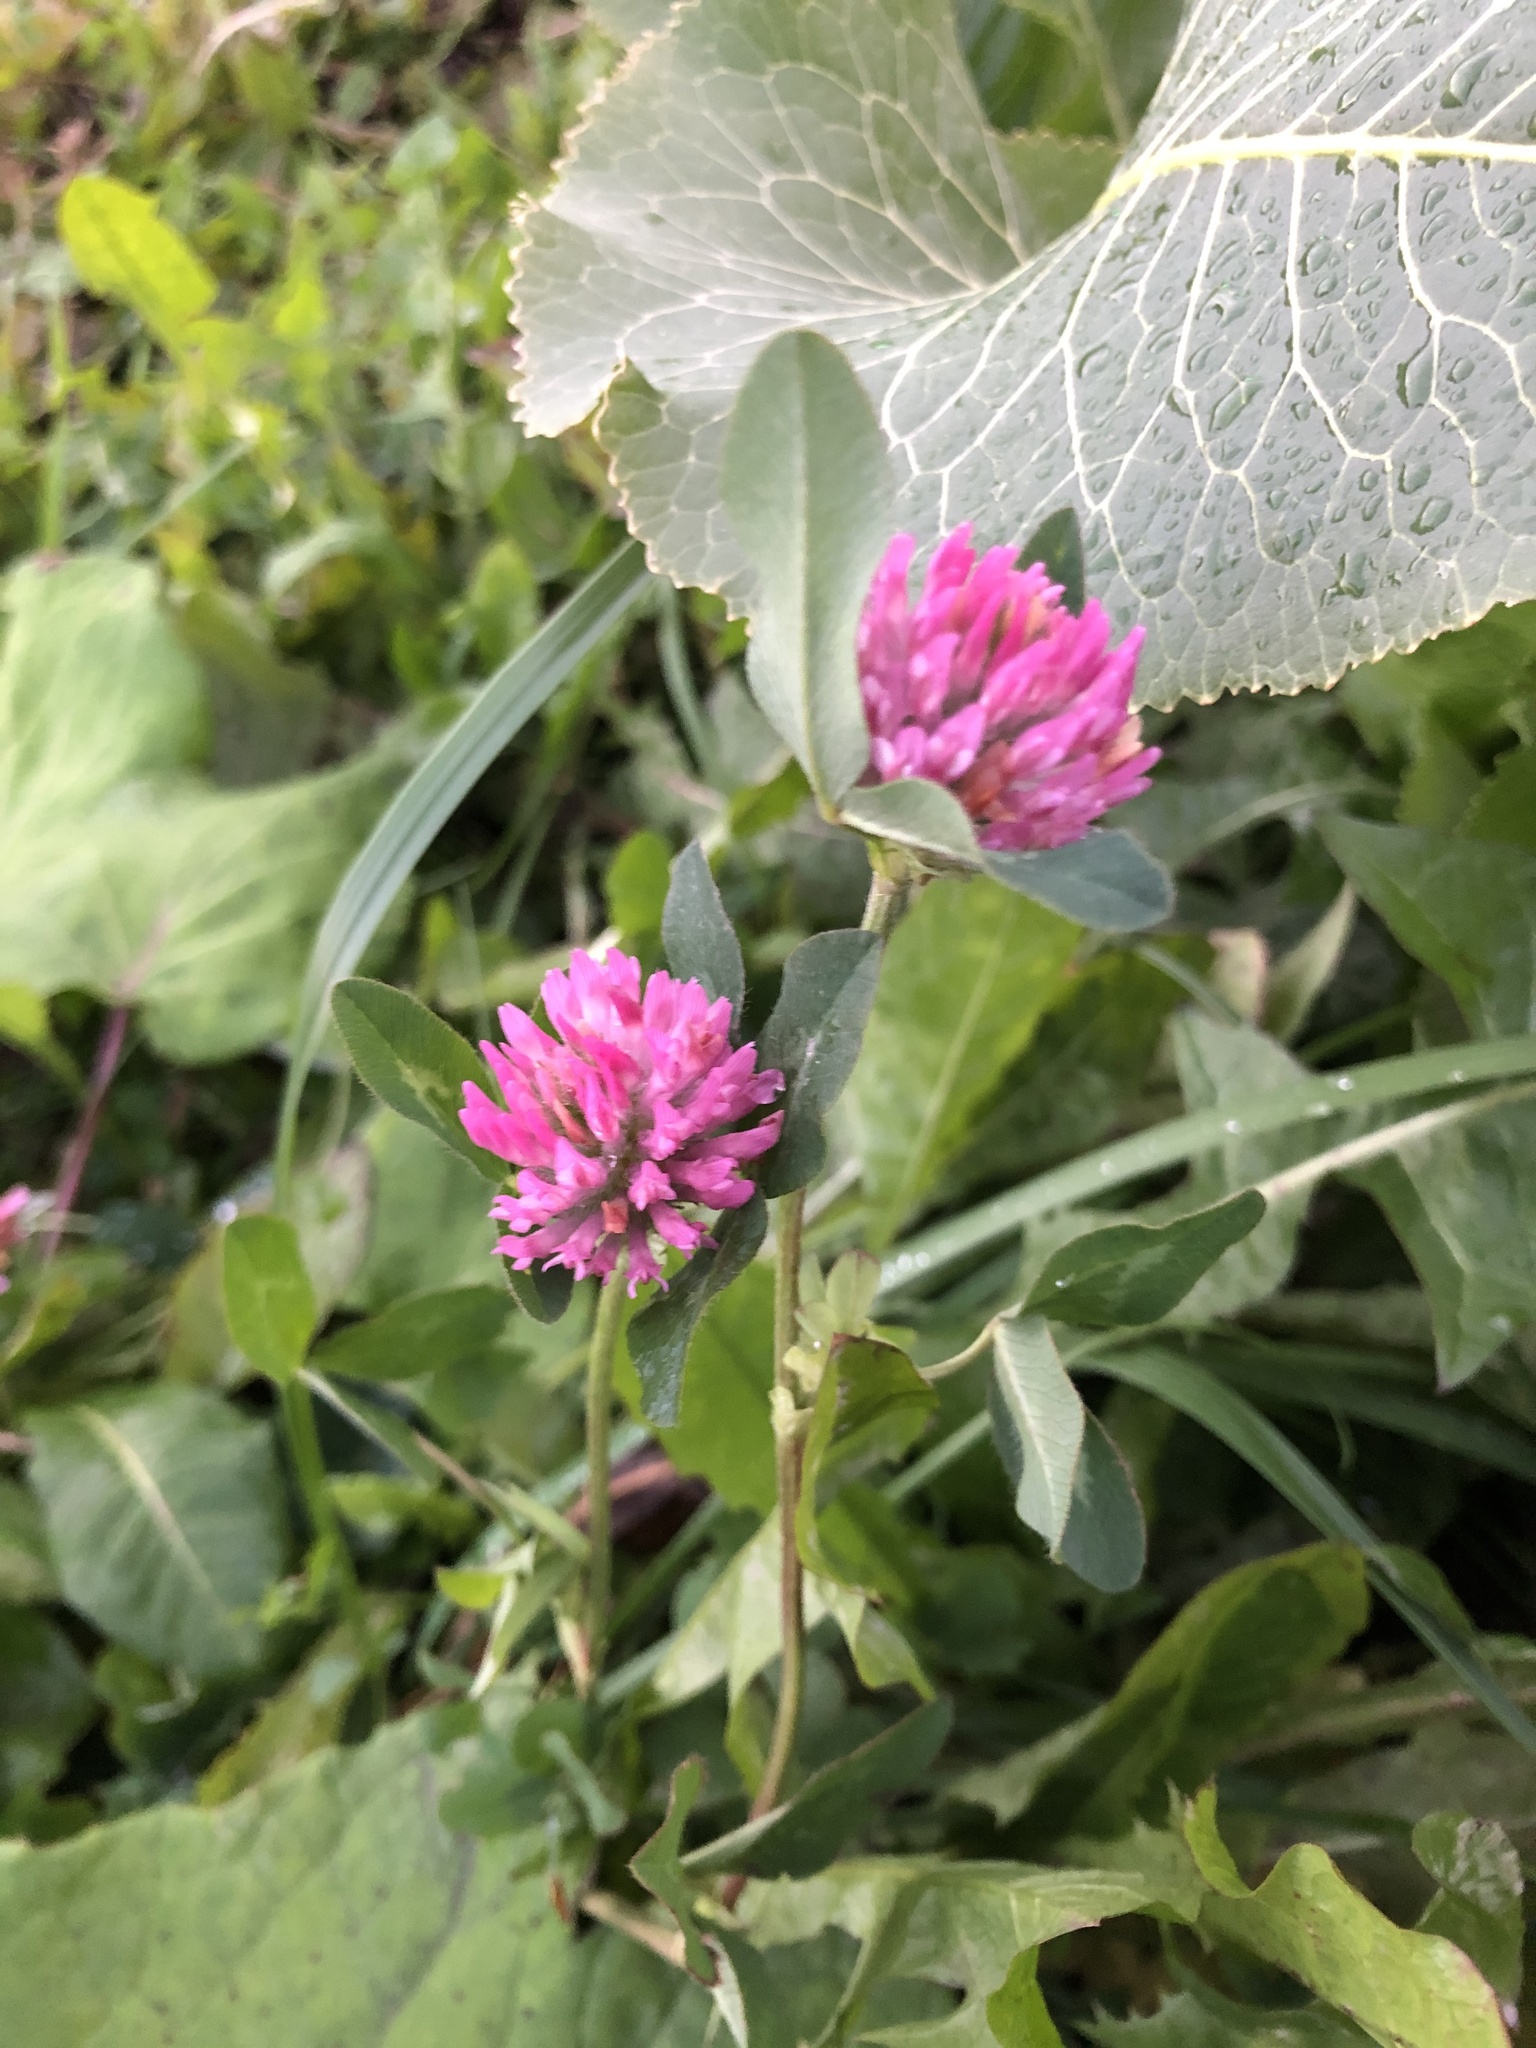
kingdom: Plantae
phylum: Tracheophyta
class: Magnoliopsida
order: Fabales
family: Fabaceae
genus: Trifolium
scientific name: Trifolium pratense
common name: Red clover
